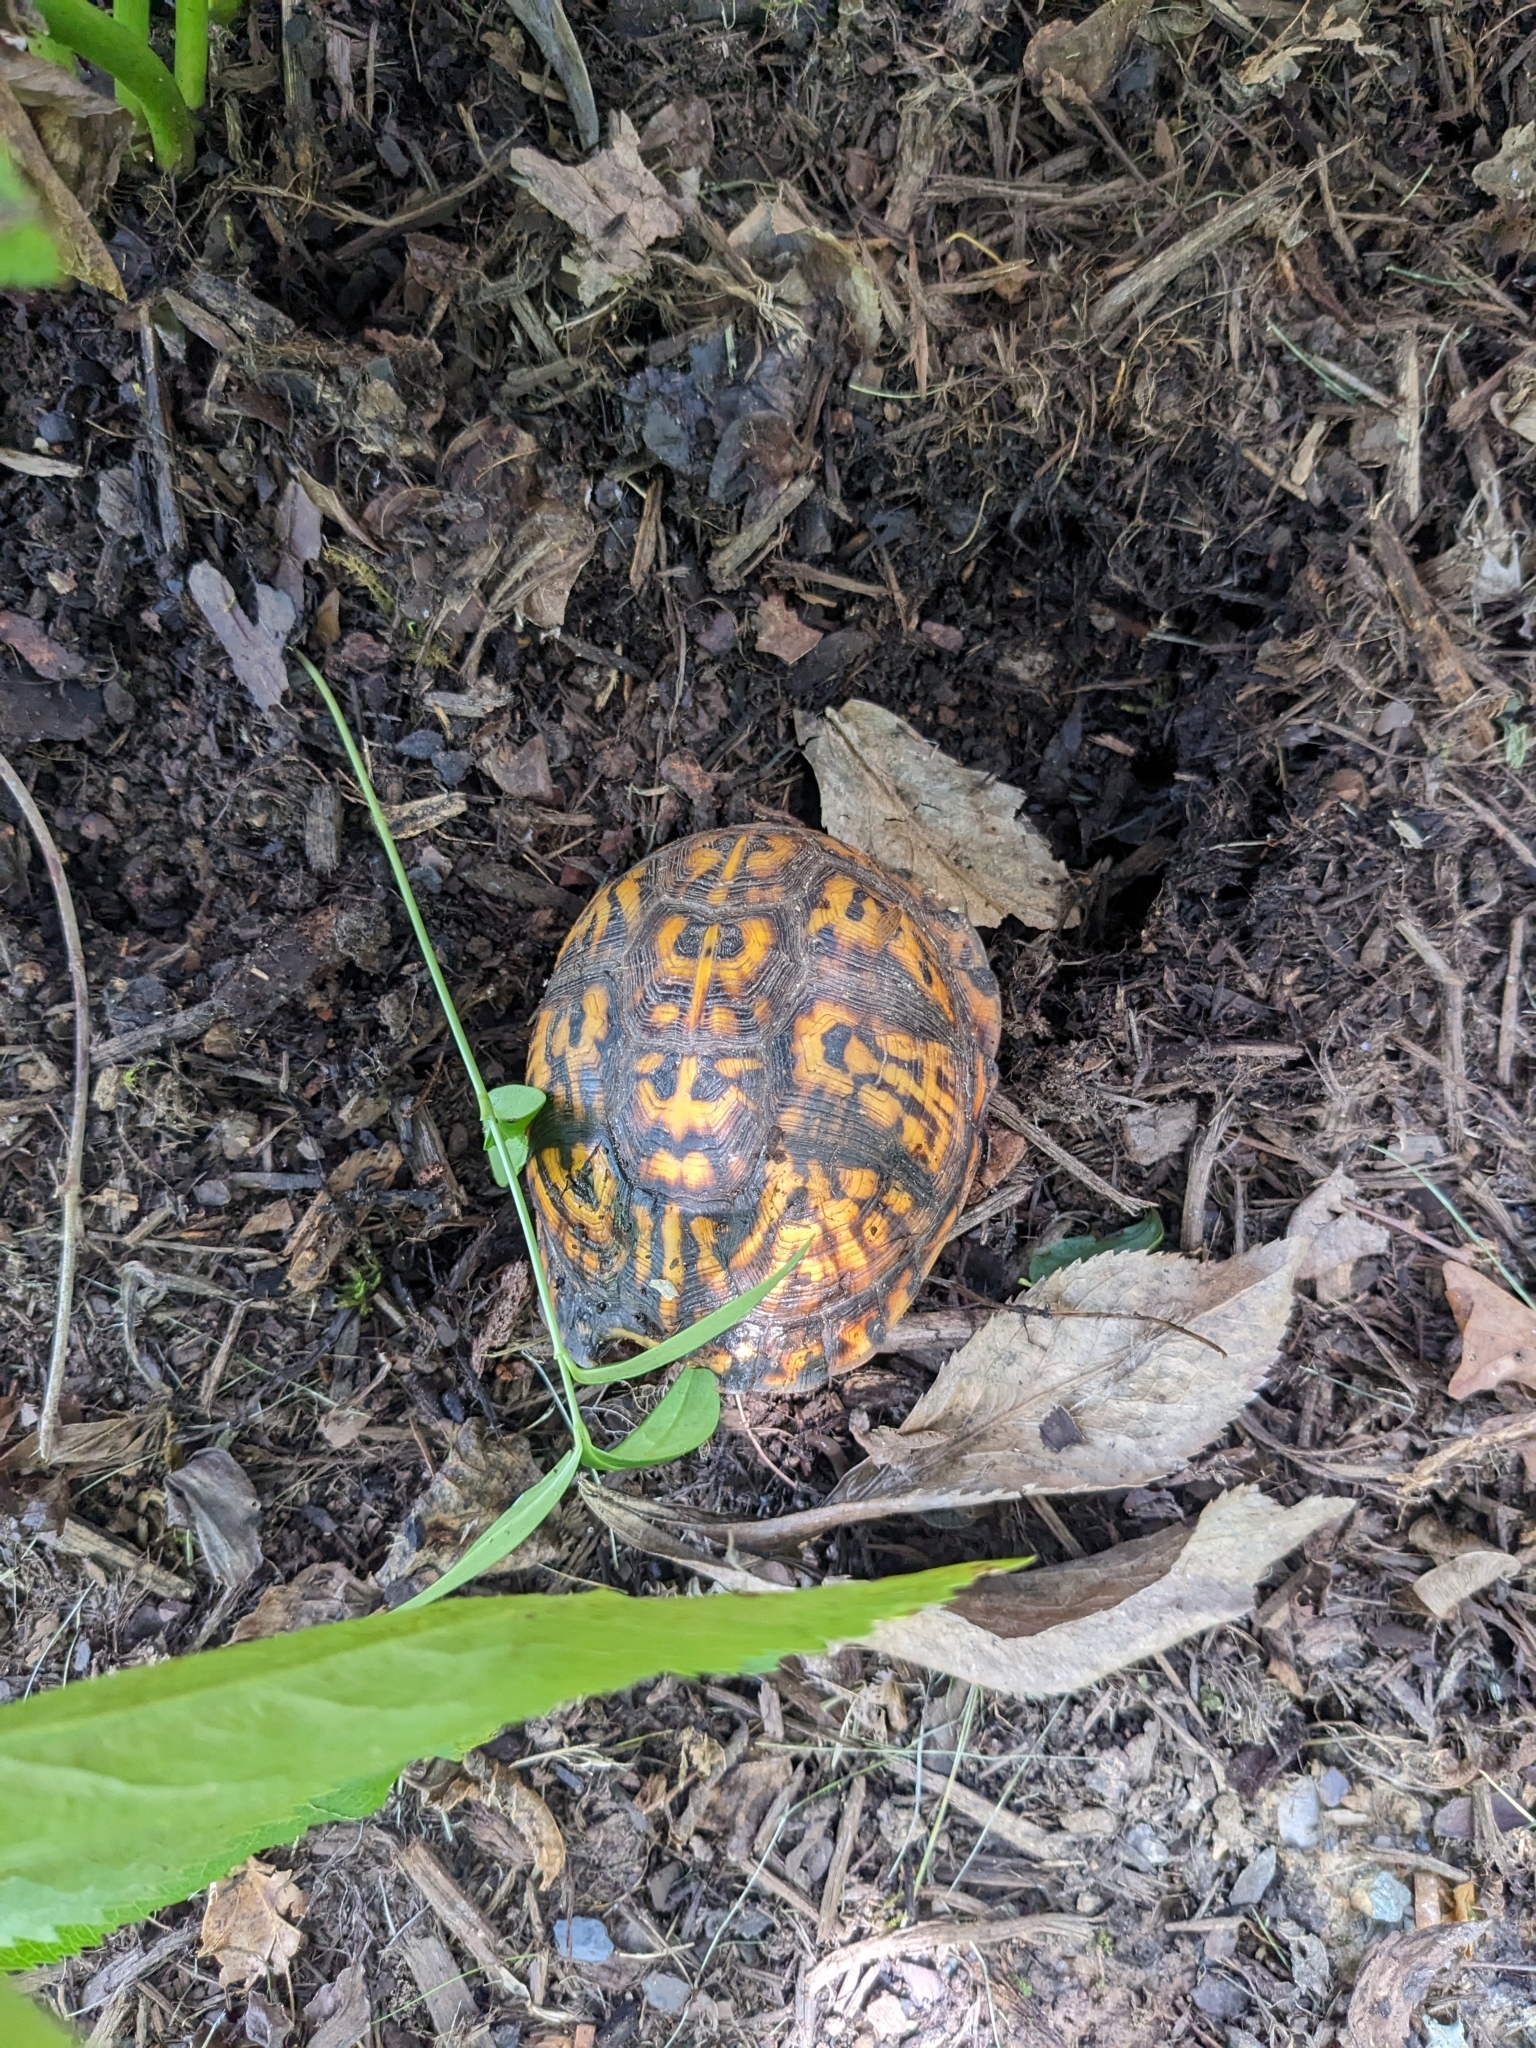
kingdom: Animalia
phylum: Chordata
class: Testudines
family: Emydidae
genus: Terrapene
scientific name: Terrapene carolina
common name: Common box turtle
